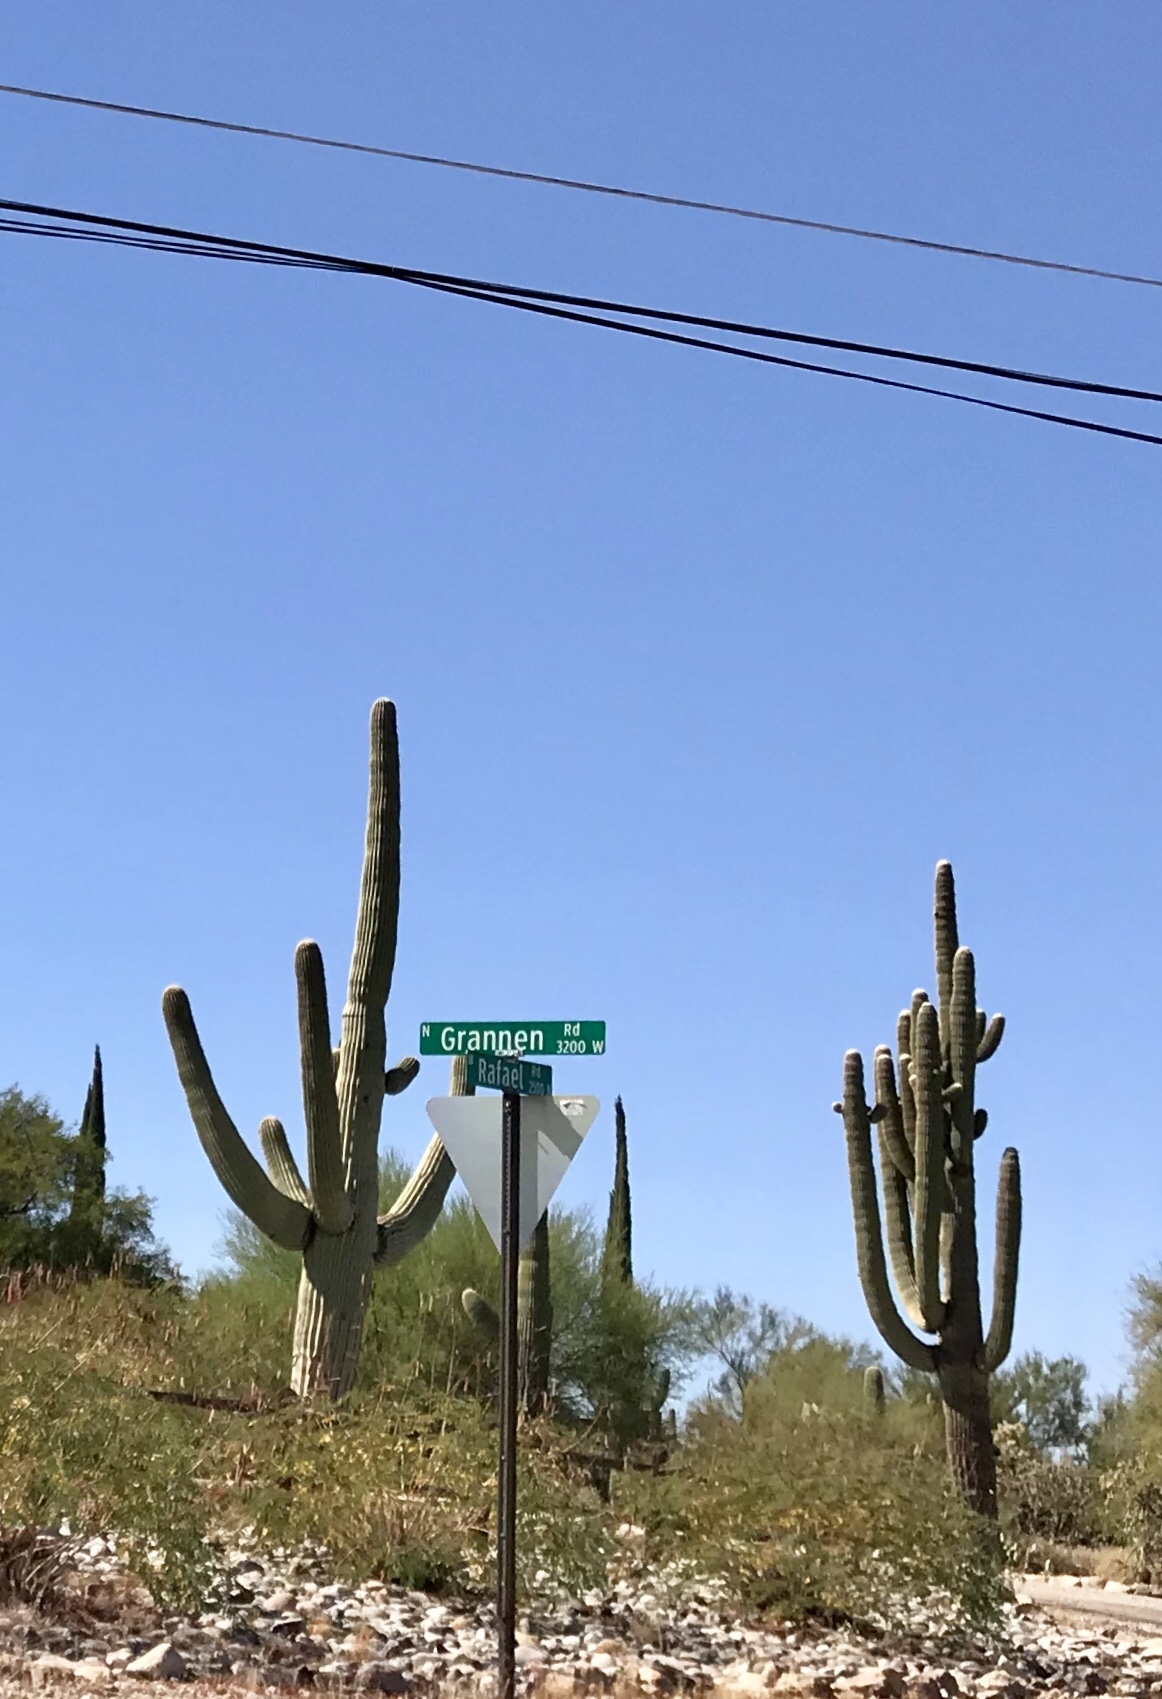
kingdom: Plantae
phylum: Tracheophyta
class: Magnoliopsida
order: Caryophyllales
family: Cactaceae
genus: Carnegiea
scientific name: Carnegiea gigantea
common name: Saguaro
